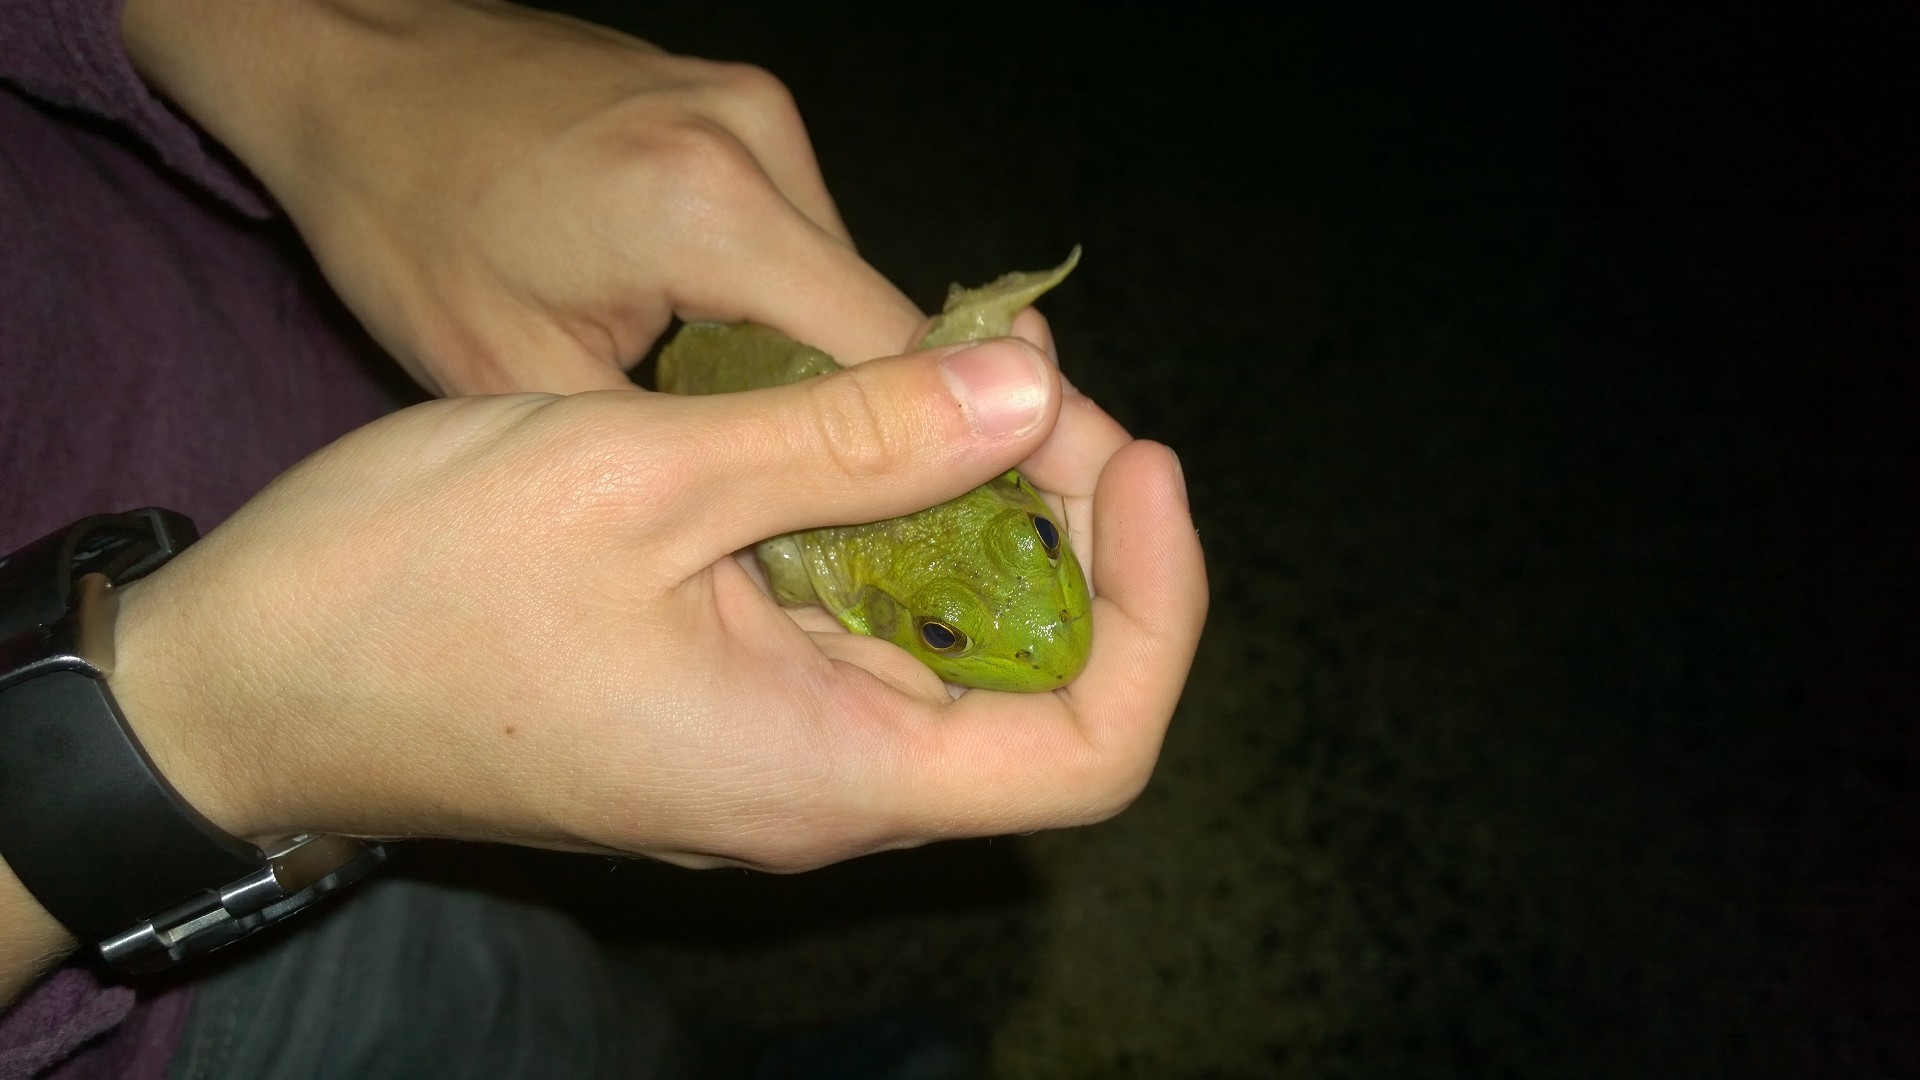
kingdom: Animalia
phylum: Chordata
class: Amphibia
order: Anura
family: Ranidae
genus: Lithobates
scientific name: Lithobates catesbeianus
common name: American bullfrog
